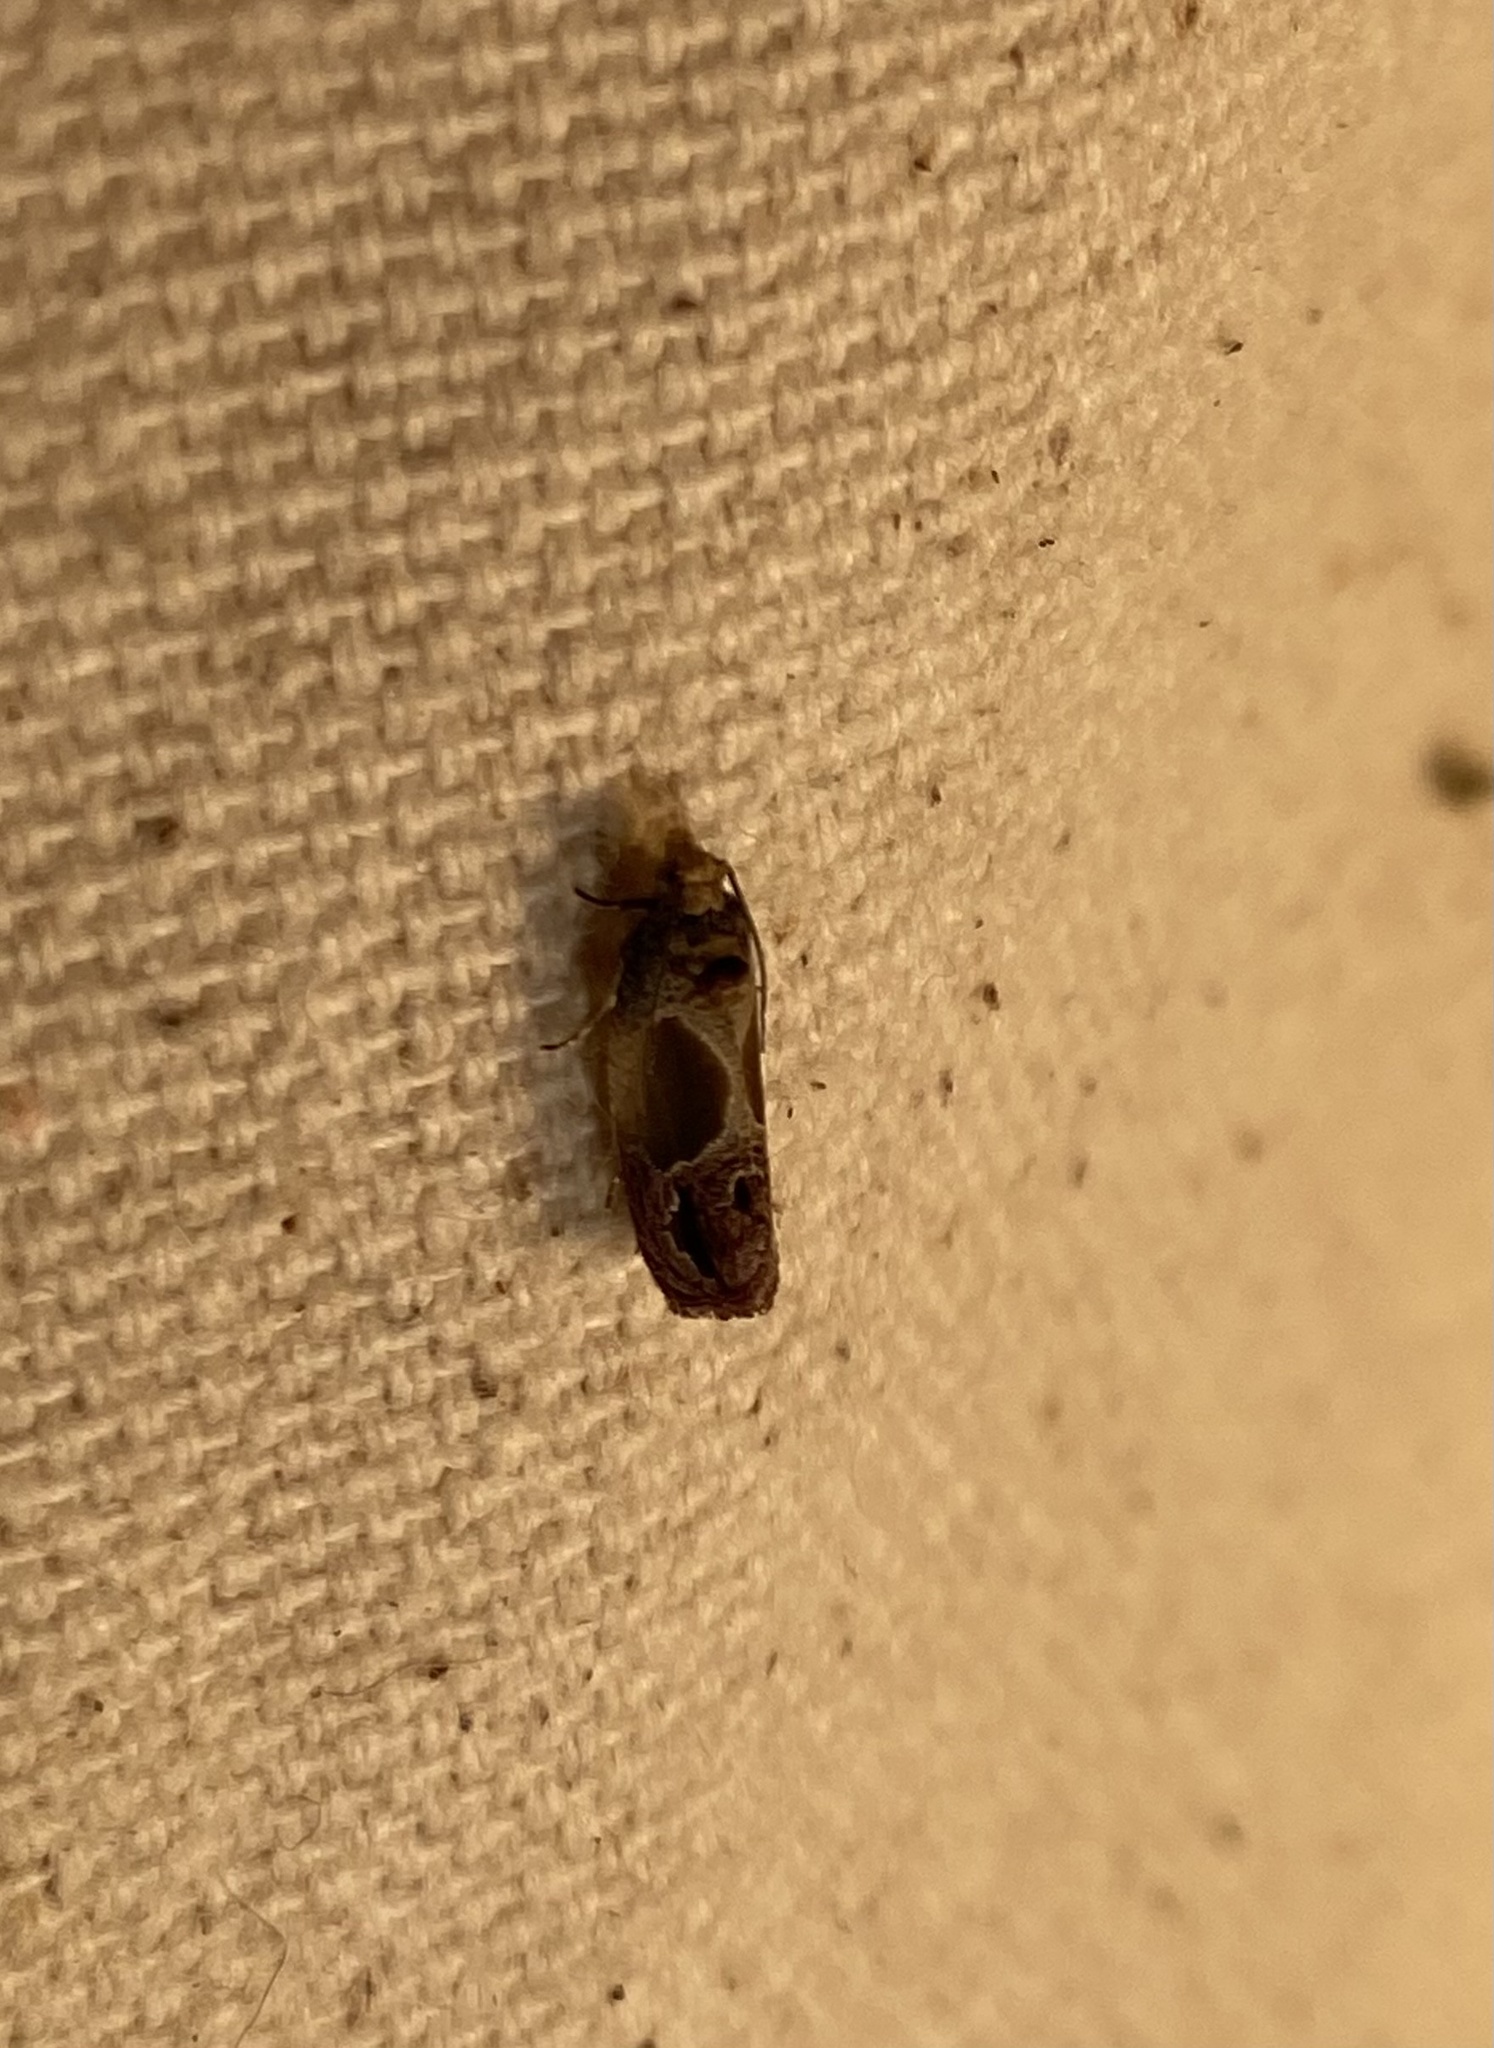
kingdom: Animalia
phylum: Arthropoda
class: Insecta
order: Lepidoptera
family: Tortricidae
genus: Eumarozia
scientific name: Eumarozia malachitana
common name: Sculptured moth
